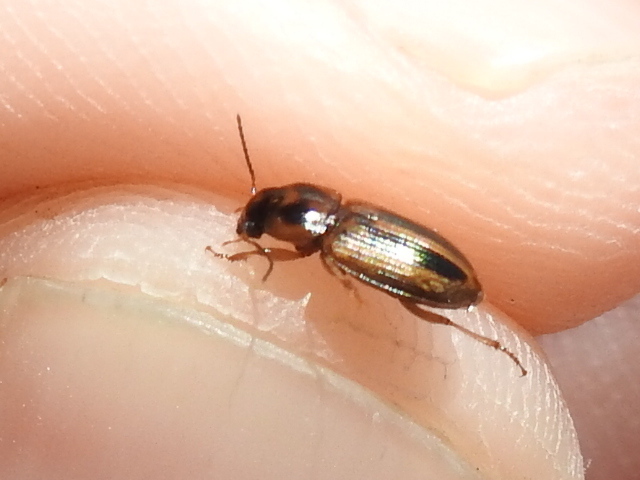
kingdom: Animalia
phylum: Arthropoda
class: Insecta
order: Coleoptera
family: Carabidae
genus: Stenolophus
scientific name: Stenolophus binotatus
